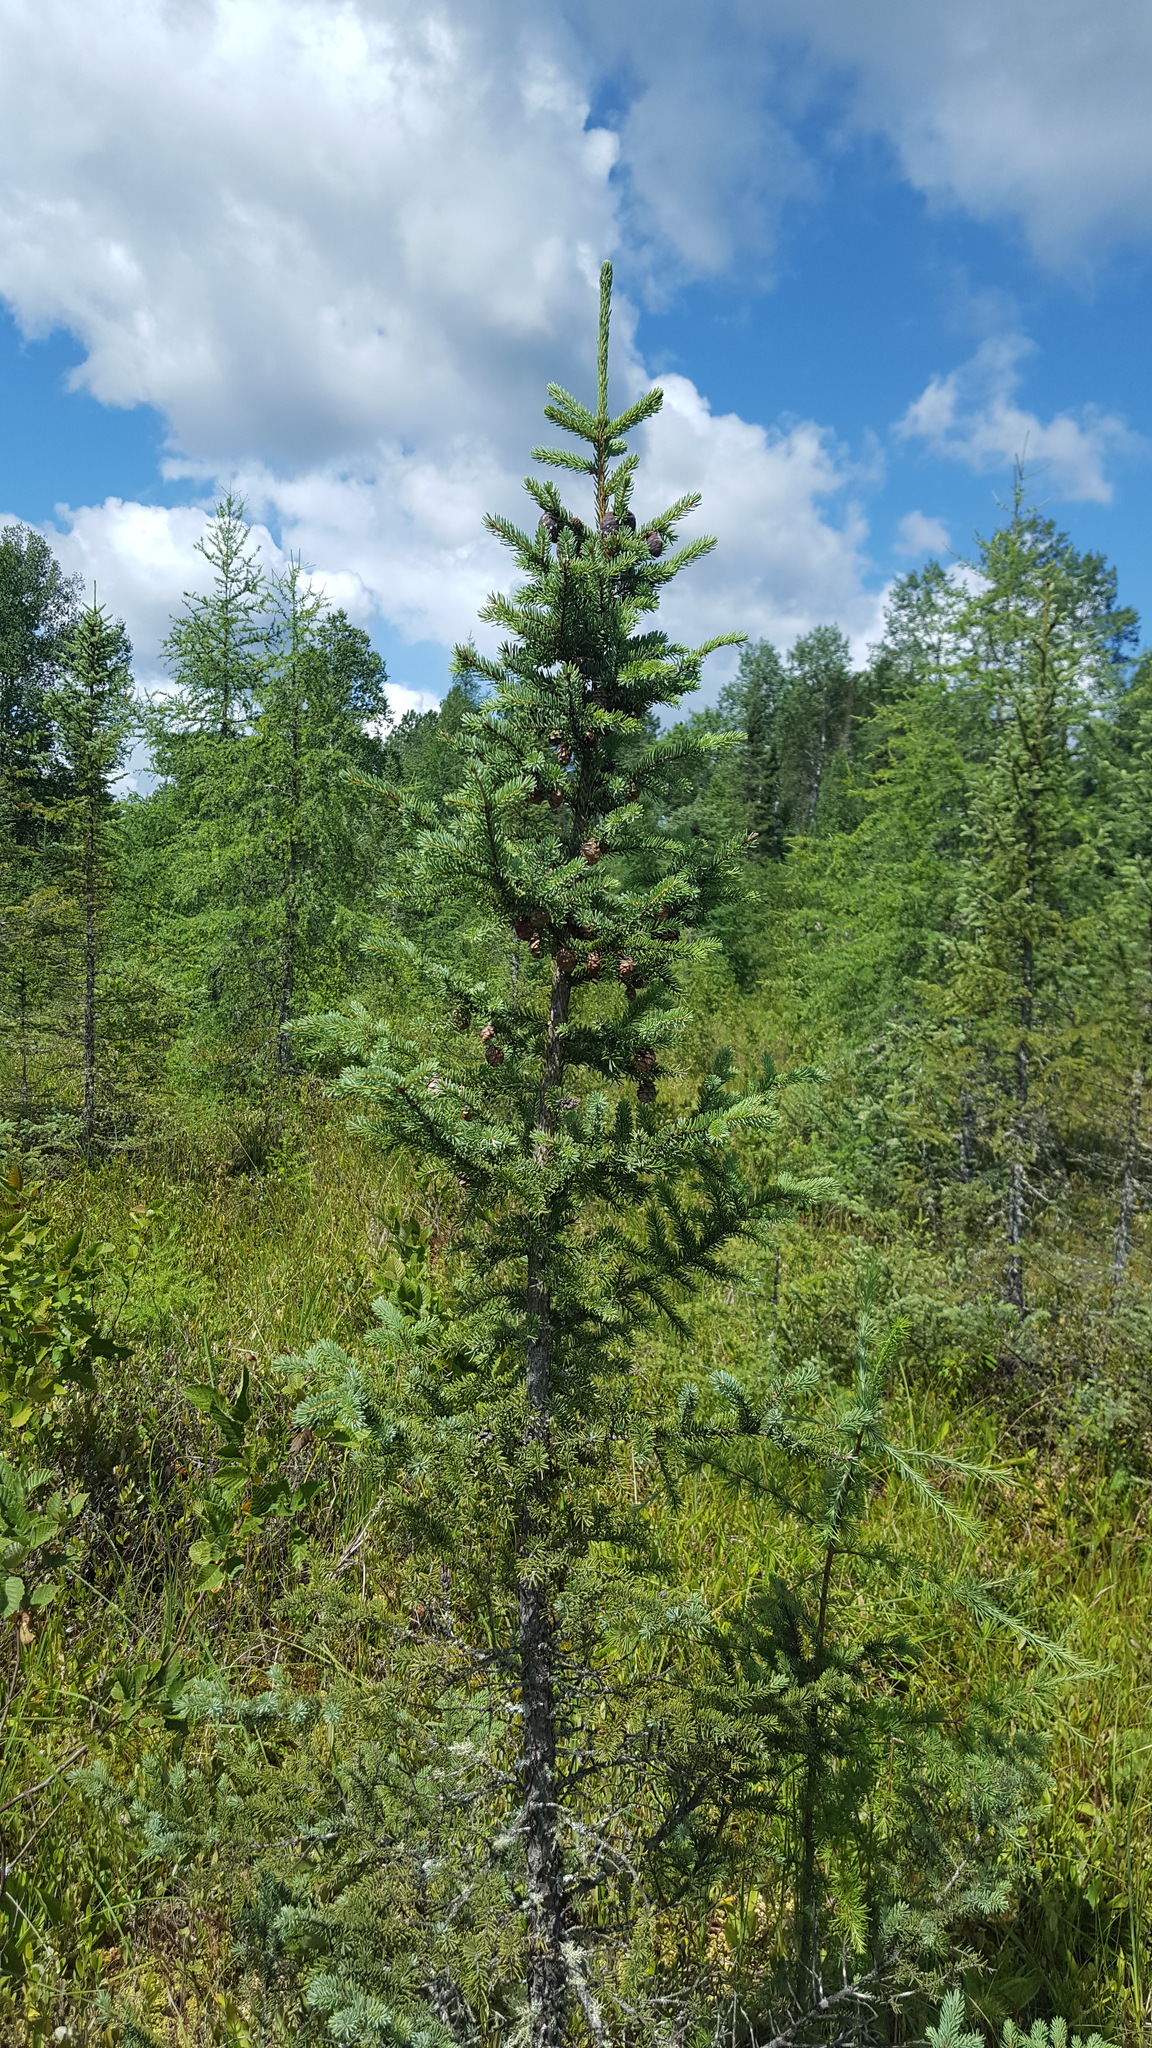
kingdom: Plantae
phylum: Tracheophyta
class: Pinopsida
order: Pinales
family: Pinaceae
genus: Picea
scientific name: Picea mariana
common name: Black spruce
